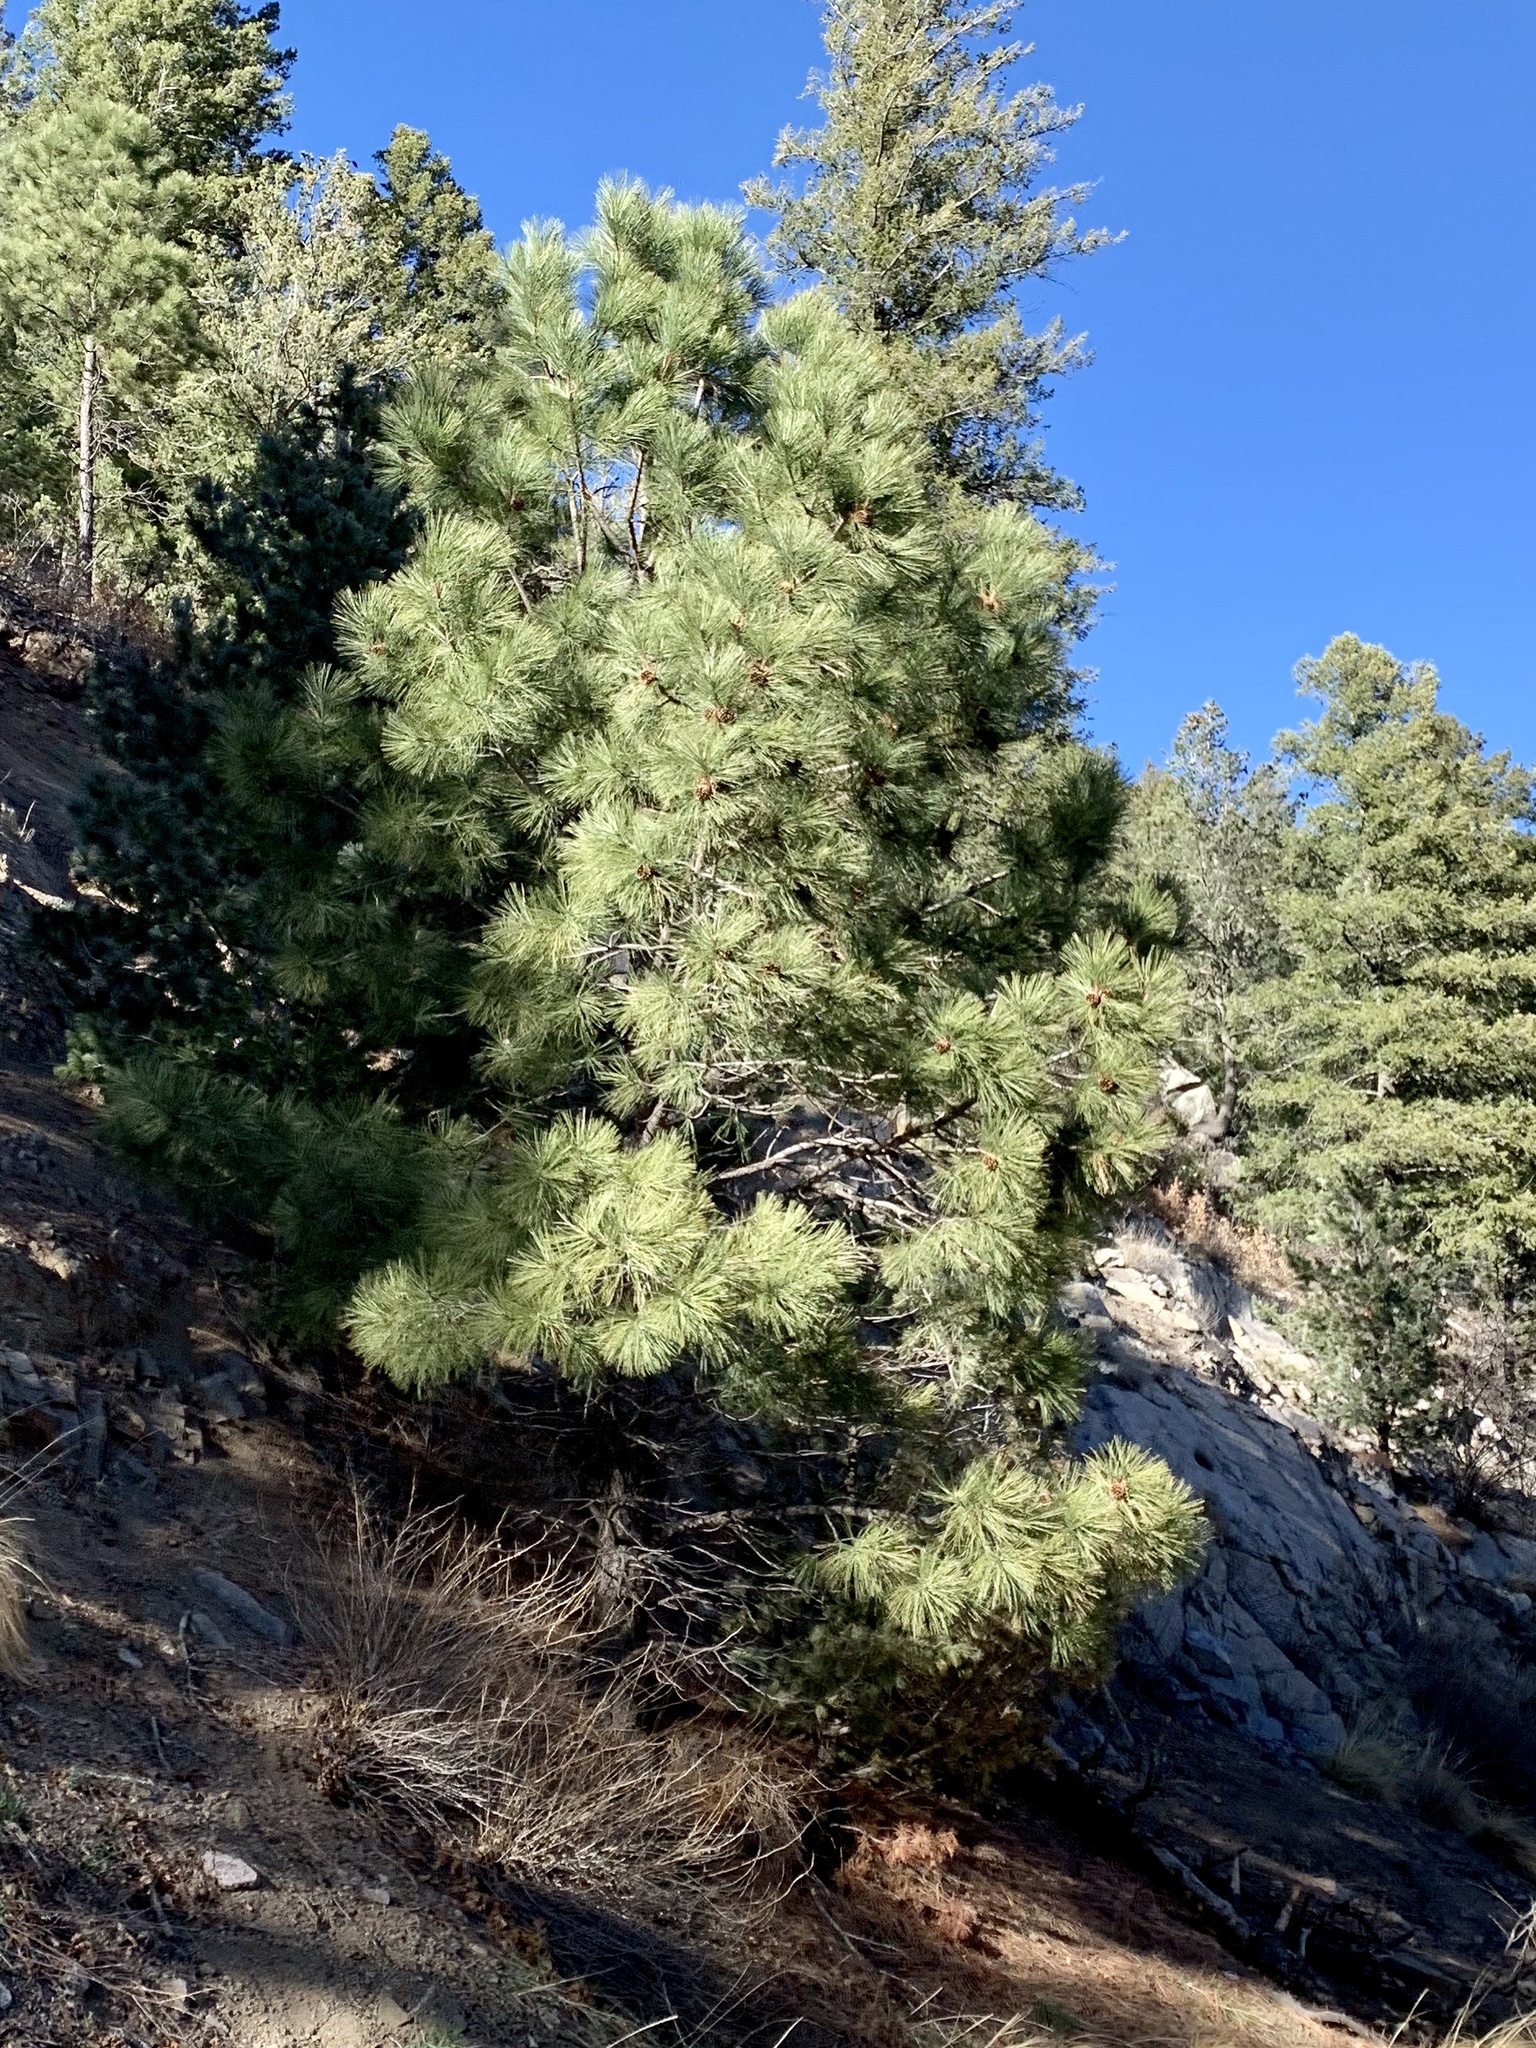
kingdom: Plantae
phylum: Tracheophyta
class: Pinopsida
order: Pinales
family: Pinaceae
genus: Pinus
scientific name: Pinus ponderosa
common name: Western yellow-pine
